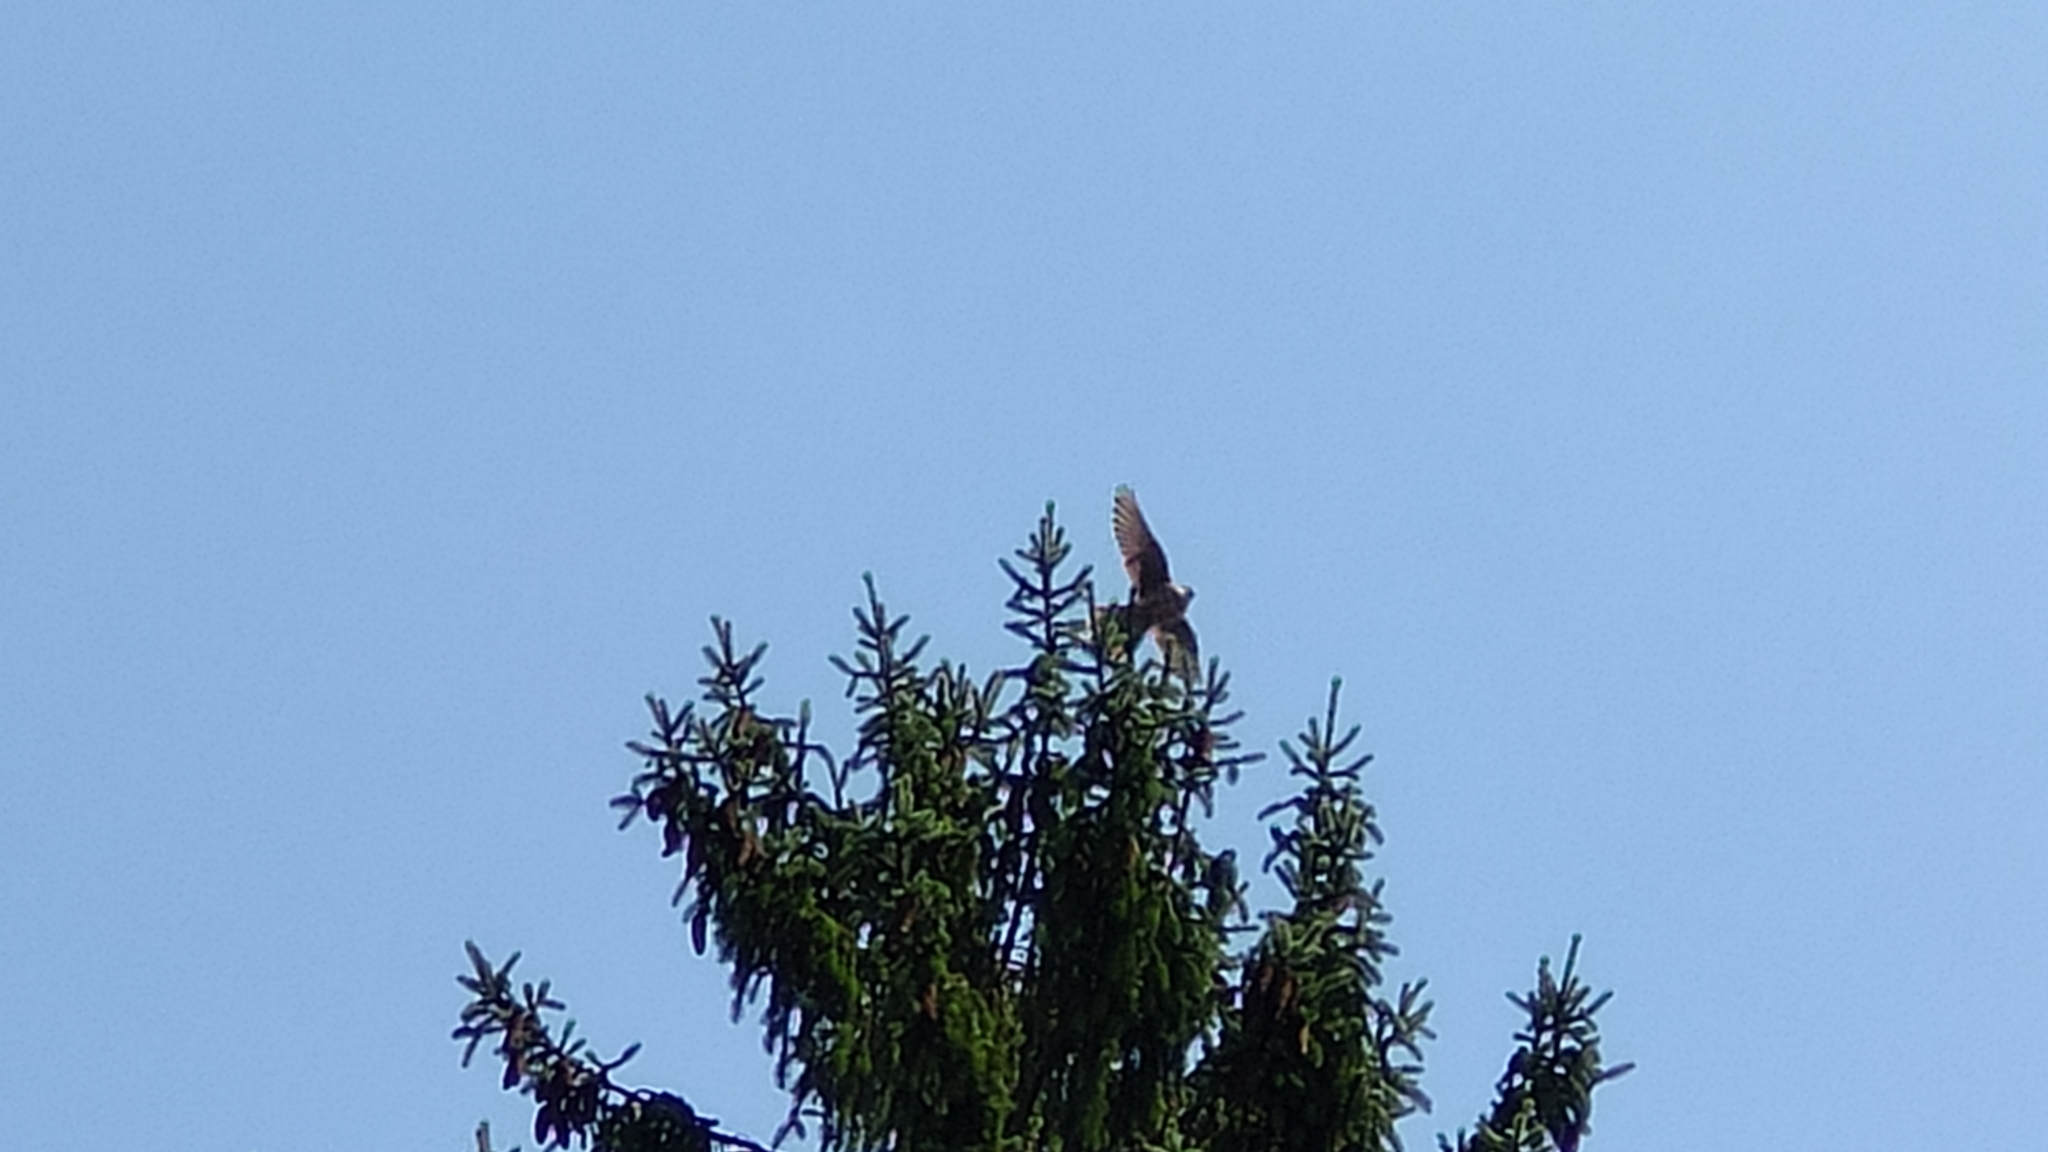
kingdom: Animalia
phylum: Chordata
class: Aves
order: Falconiformes
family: Falconidae
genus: Falco
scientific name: Falco tinnunculus
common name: Common kestrel
